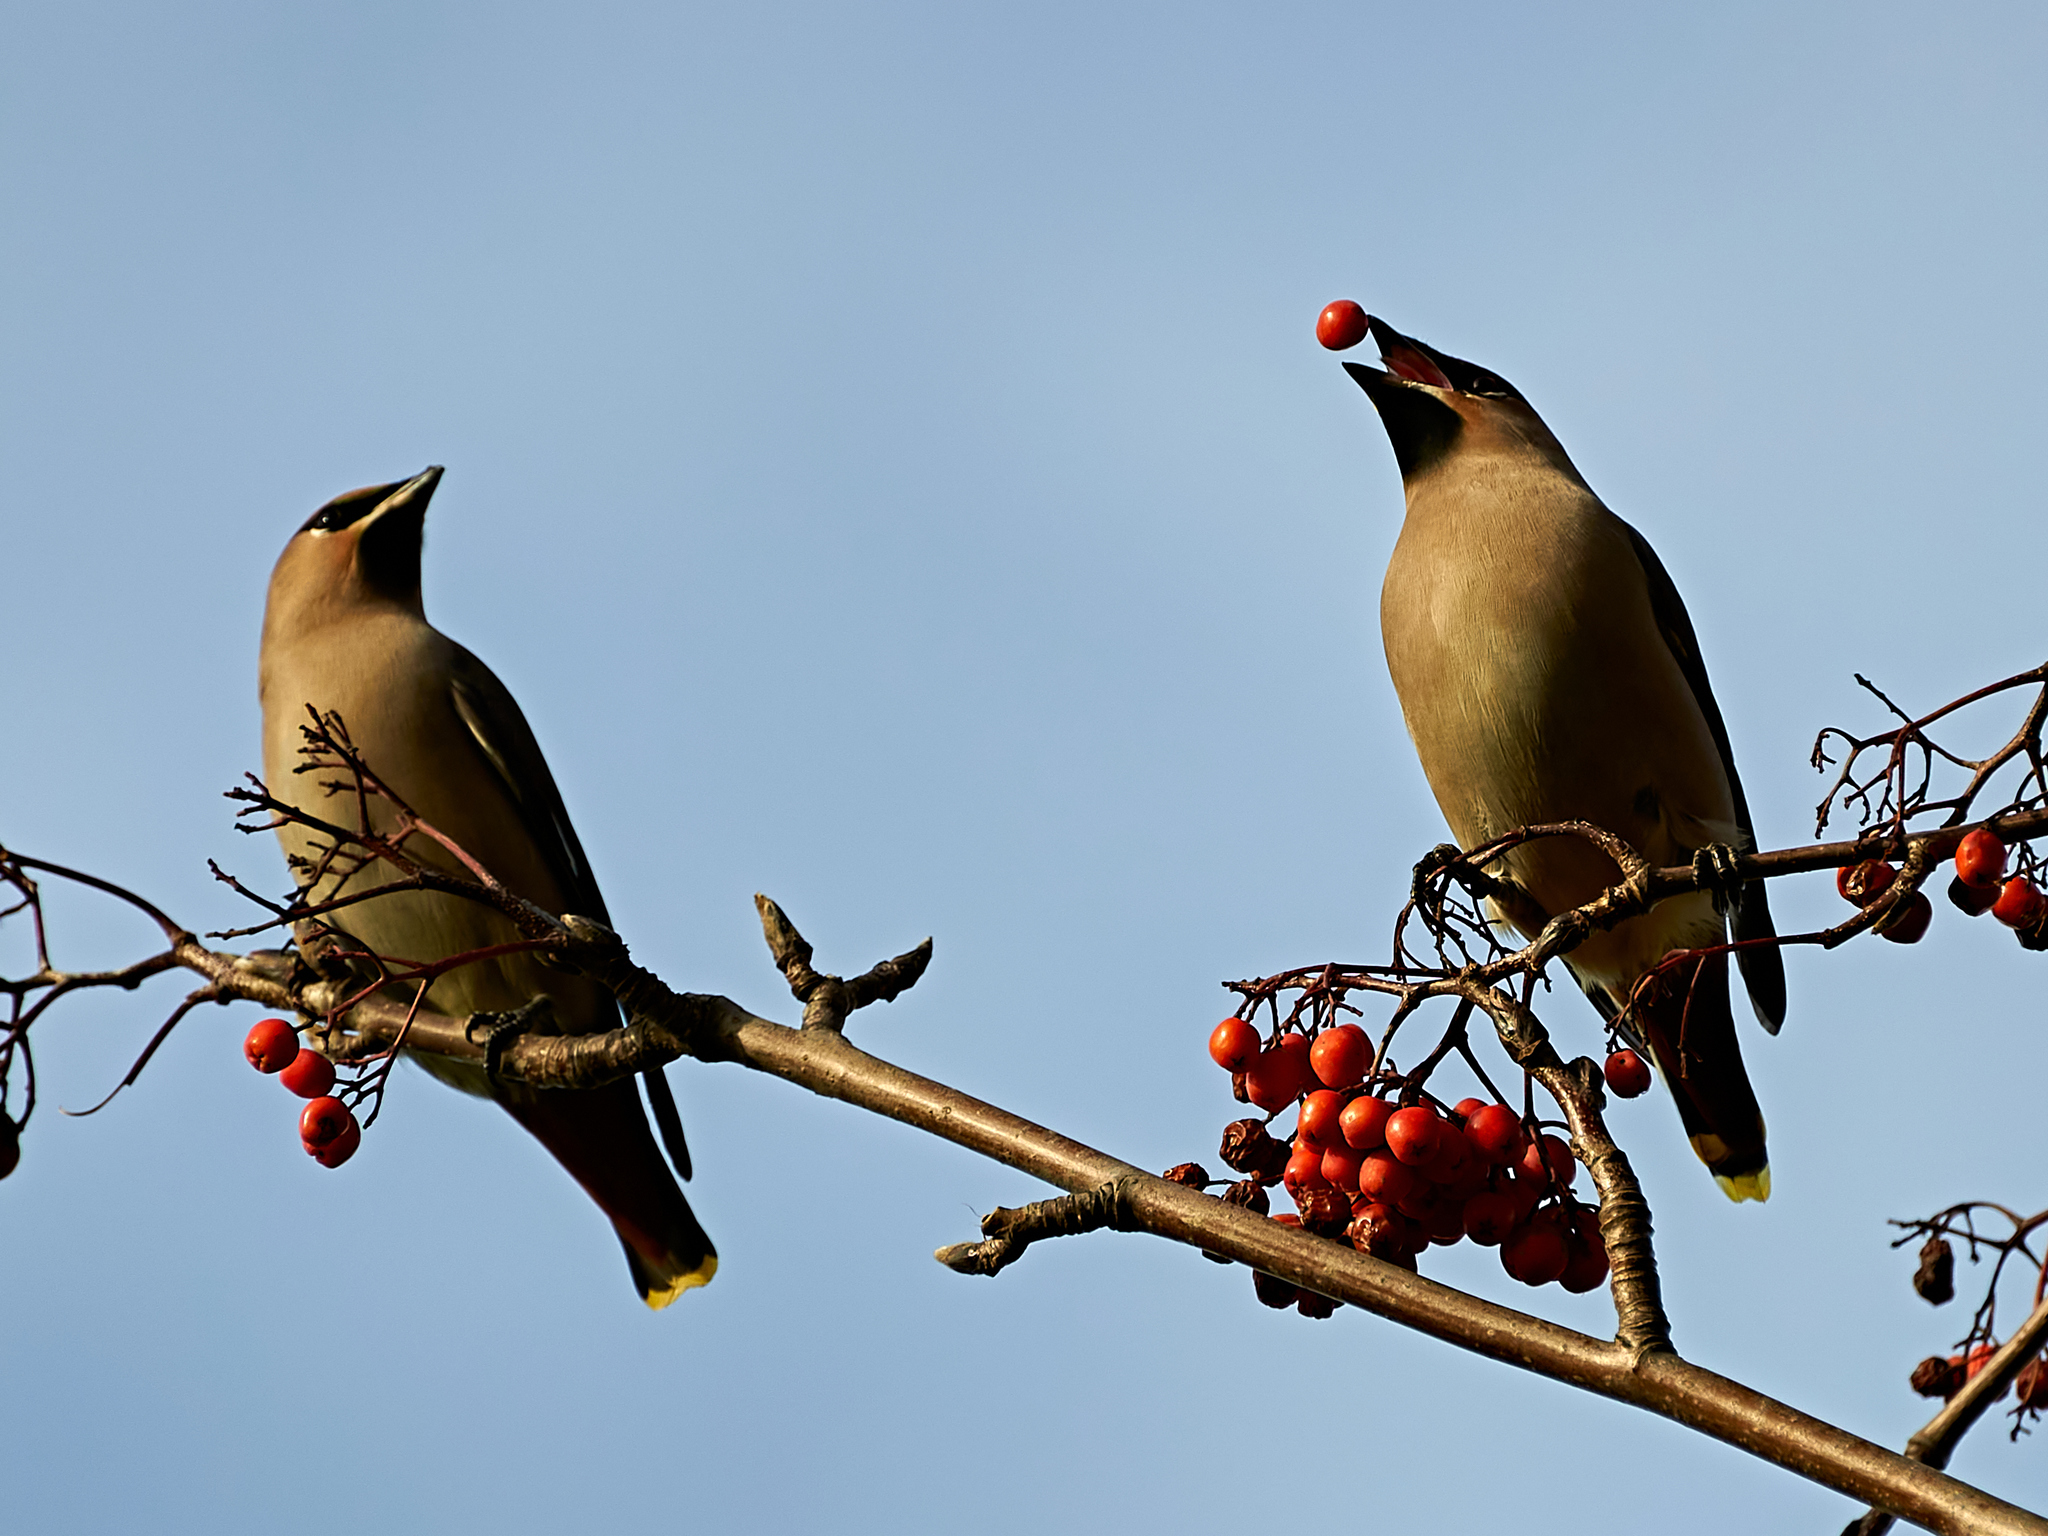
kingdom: Animalia
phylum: Chordata
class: Aves
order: Passeriformes
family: Bombycillidae
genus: Bombycilla
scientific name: Bombycilla garrulus
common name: Bohemian waxwing
